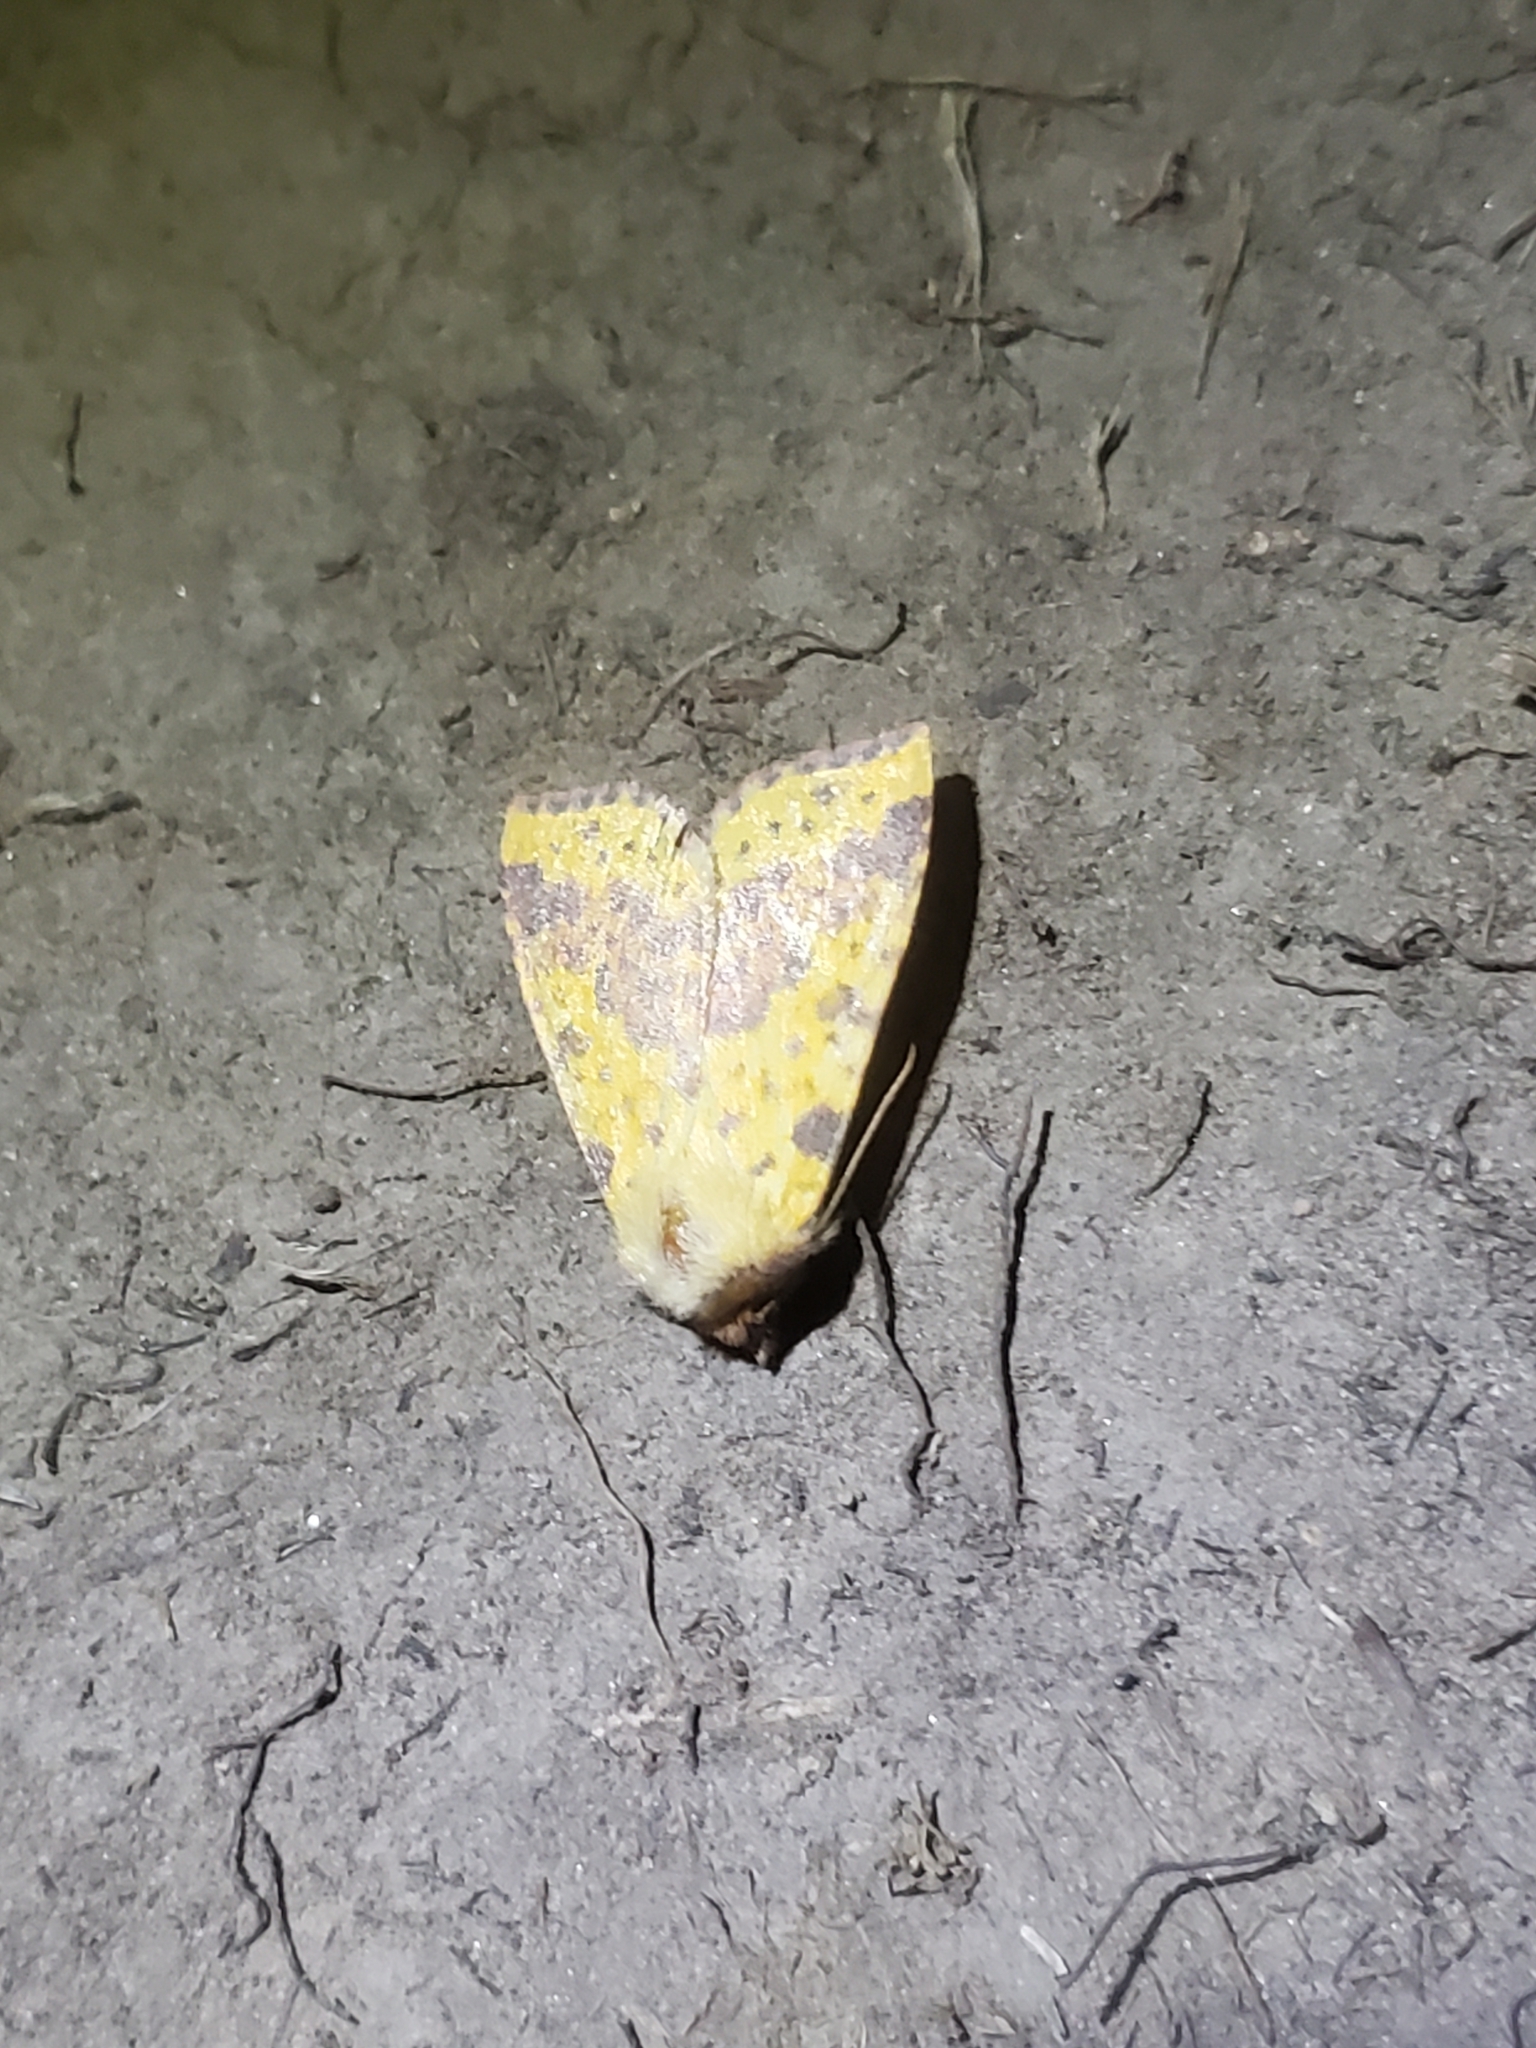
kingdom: Animalia
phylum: Arthropoda
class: Insecta
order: Lepidoptera
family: Noctuidae
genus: Xanthia
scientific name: Xanthia tatago
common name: Pink-banded sallow
